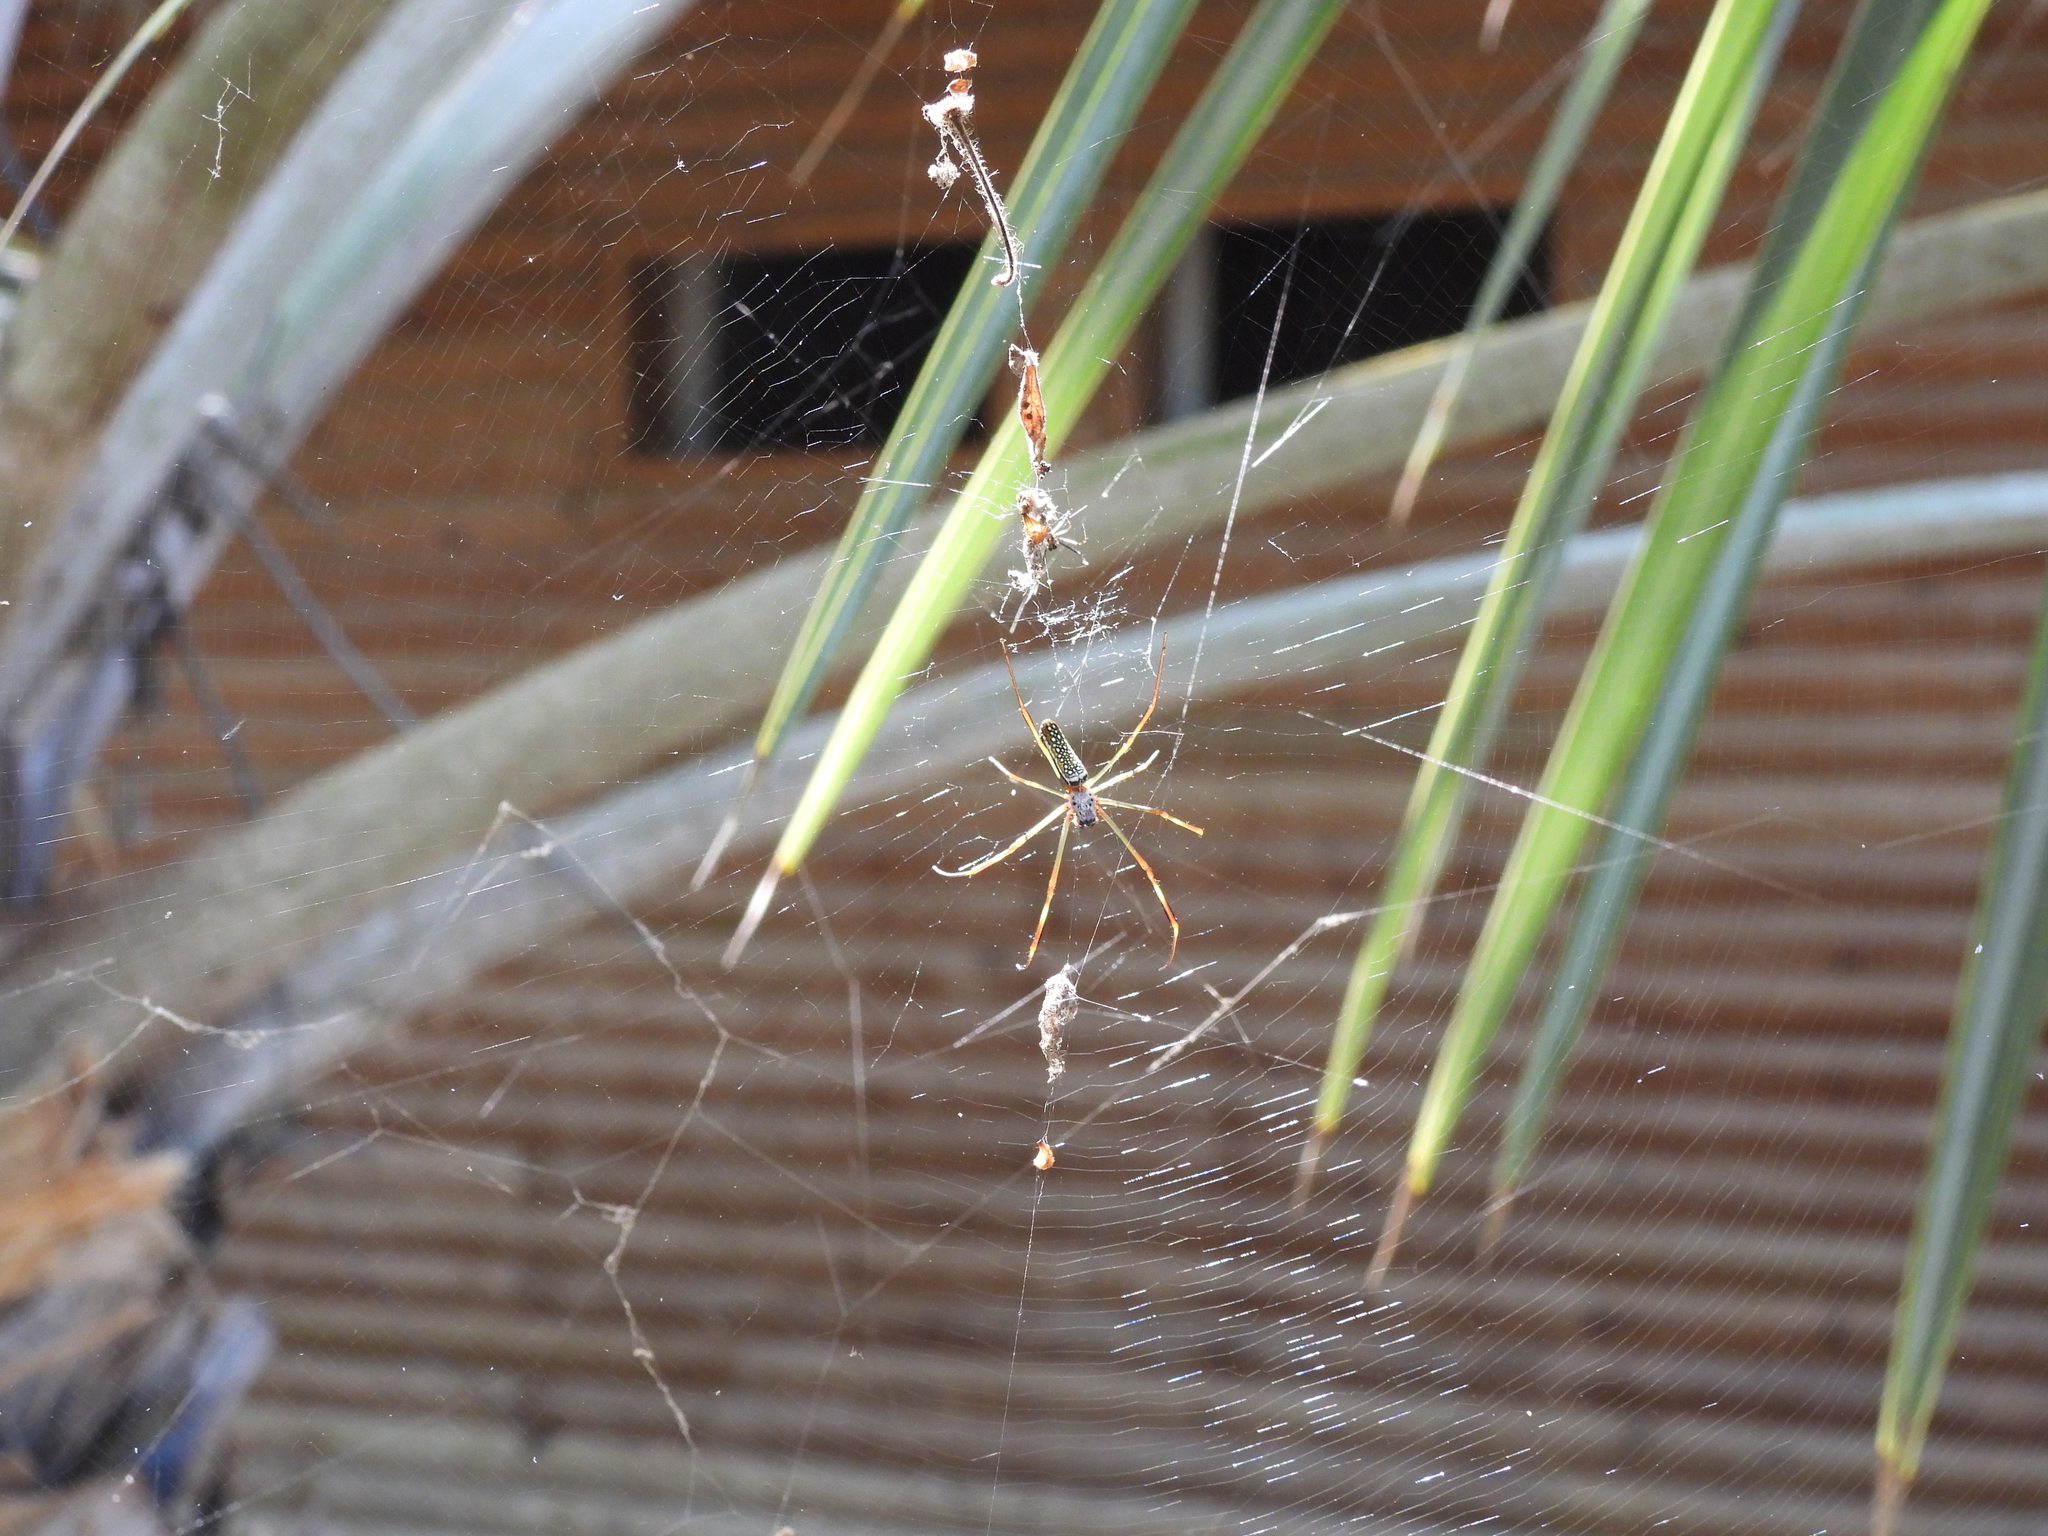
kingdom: Animalia
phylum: Arthropoda
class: Arachnida
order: Araneae
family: Araneidae
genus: Trichonephila
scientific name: Trichonephila clavipes
